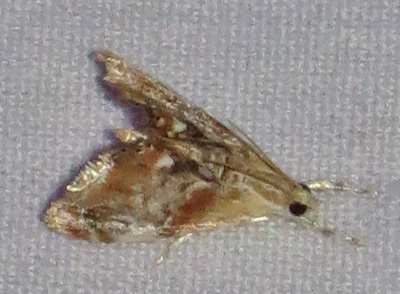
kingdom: Animalia
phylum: Arthropoda
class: Insecta
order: Lepidoptera
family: Crambidae
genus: Dicymolomia
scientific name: Dicymolomia julianalis
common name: Julia's dicymolomia moth
